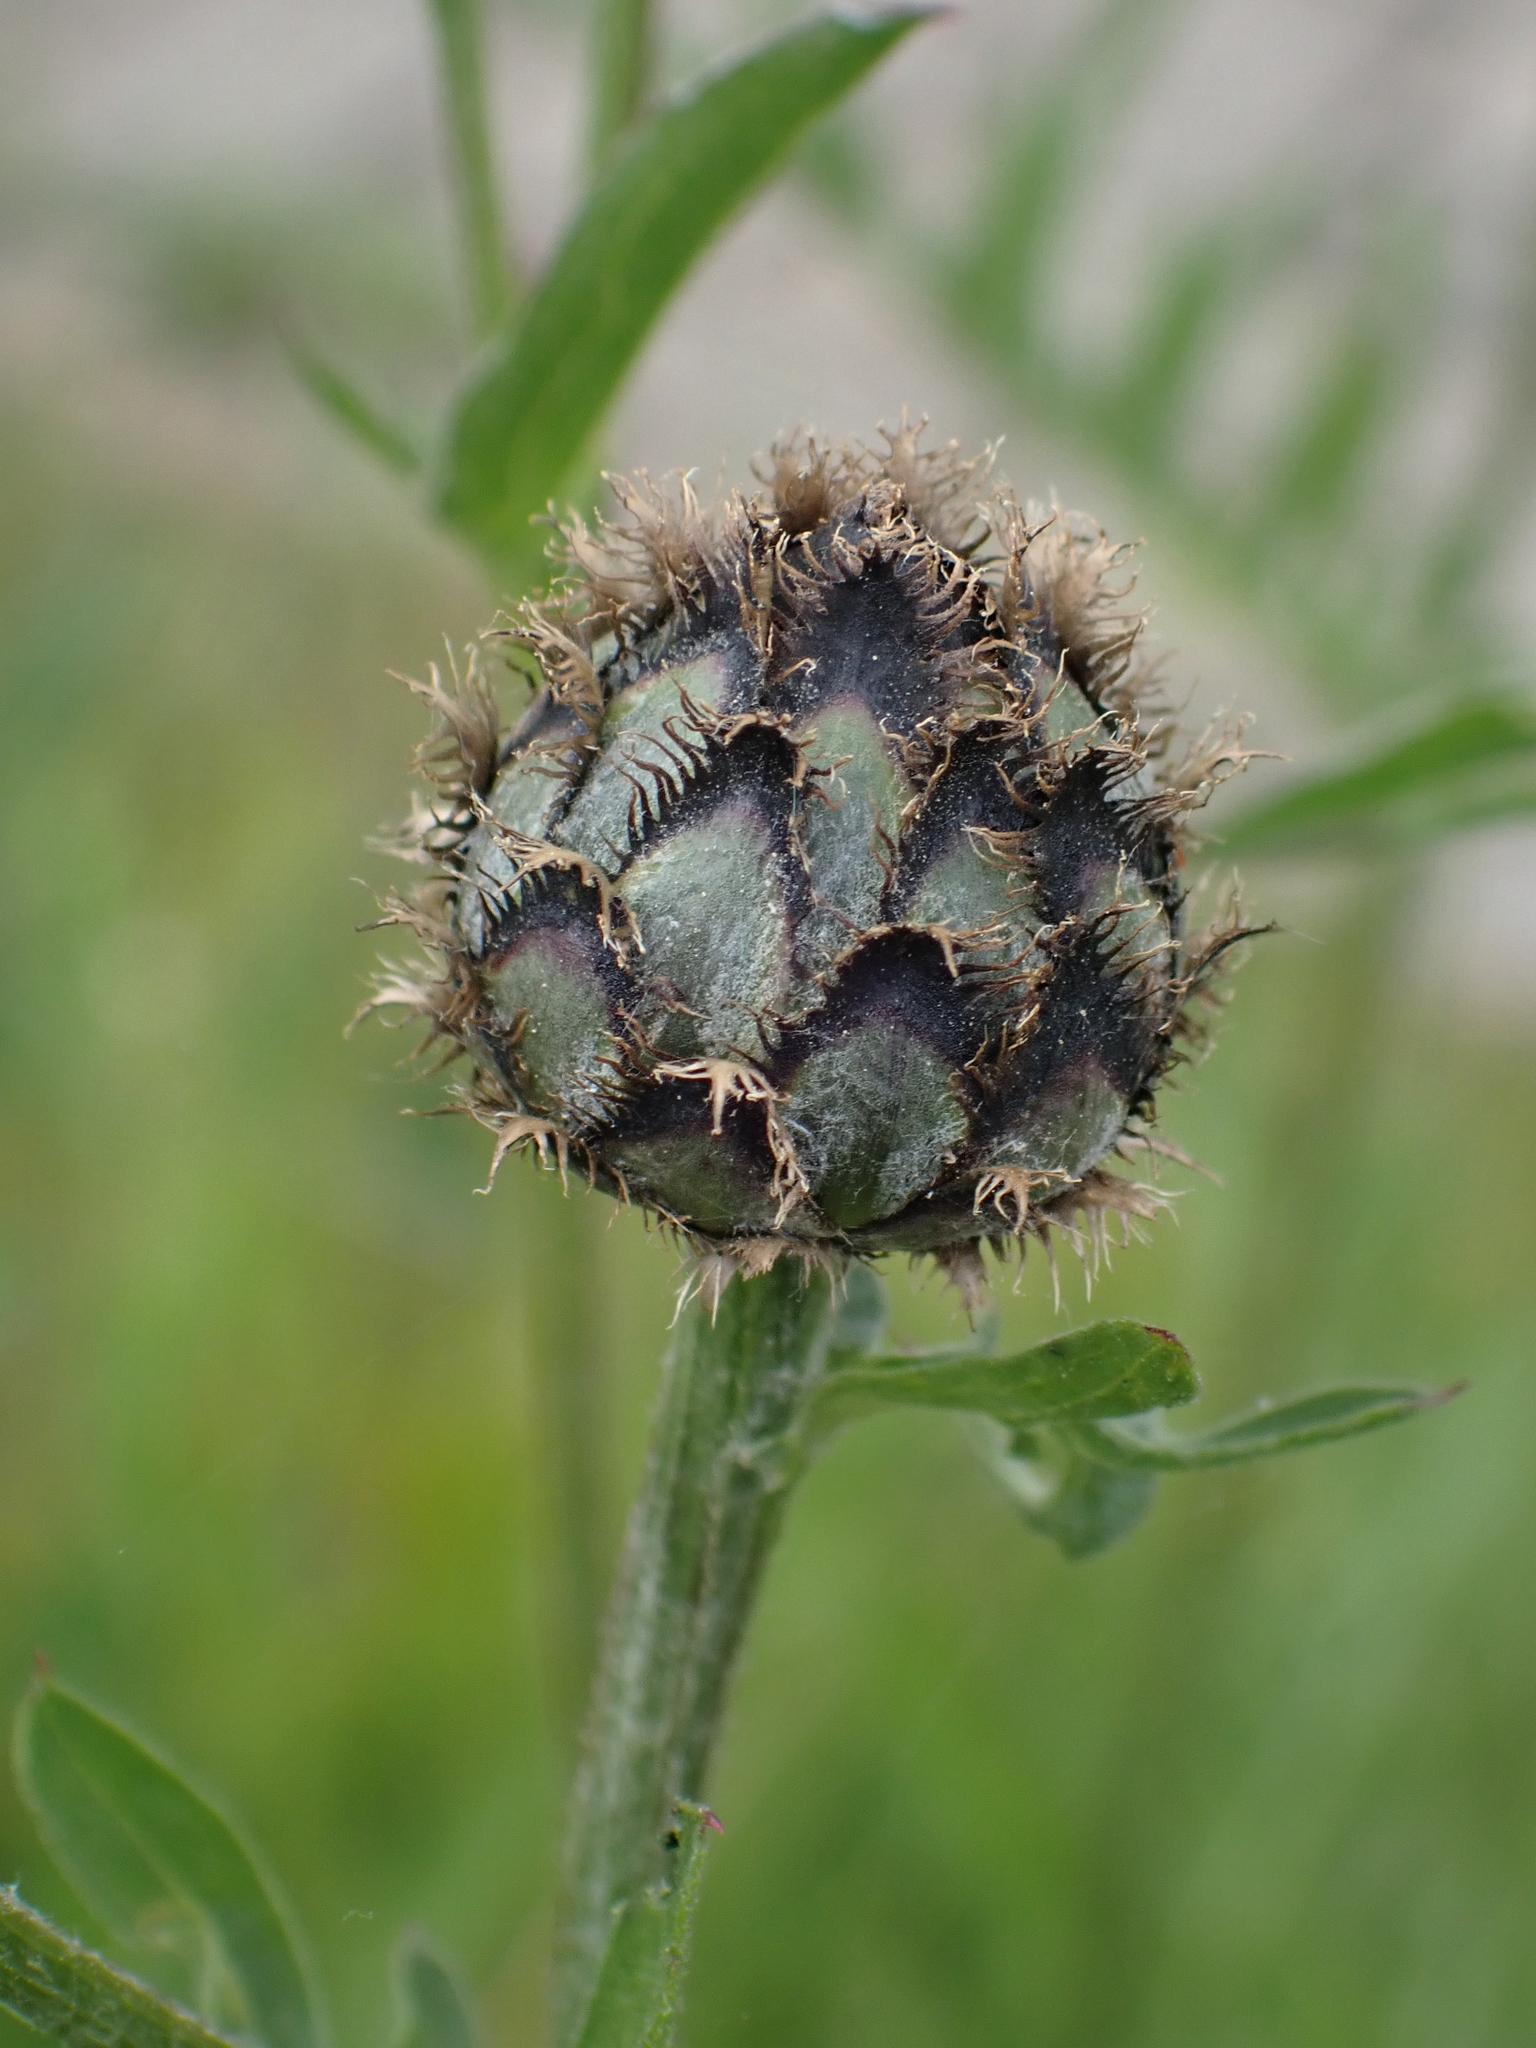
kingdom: Plantae
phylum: Tracheophyta
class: Magnoliopsida
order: Asterales
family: Asteraceae
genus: Centaurea
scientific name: Centaurea scabiosa
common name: Greater knapweed
